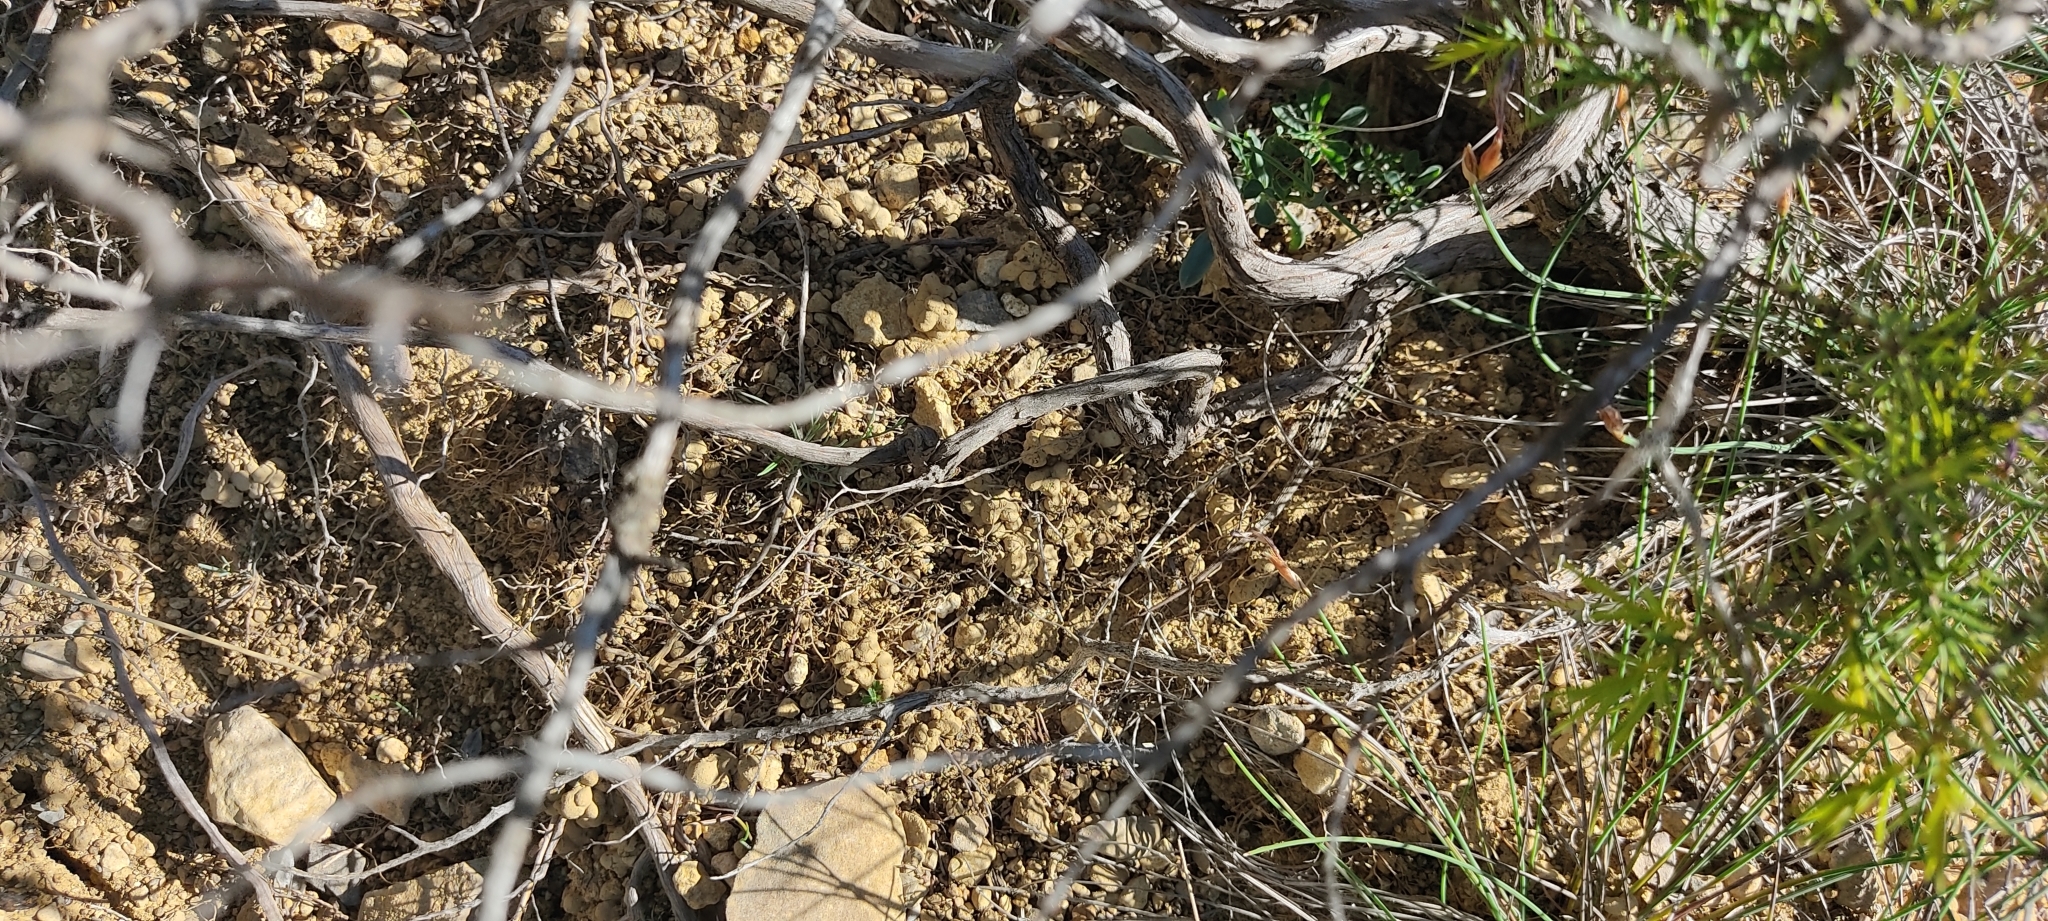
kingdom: Animalia
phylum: Chordata
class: Squamata
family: Lacertidae
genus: Psammodromus
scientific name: Psammodromus edwarsianus
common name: East iberian psammodromus
